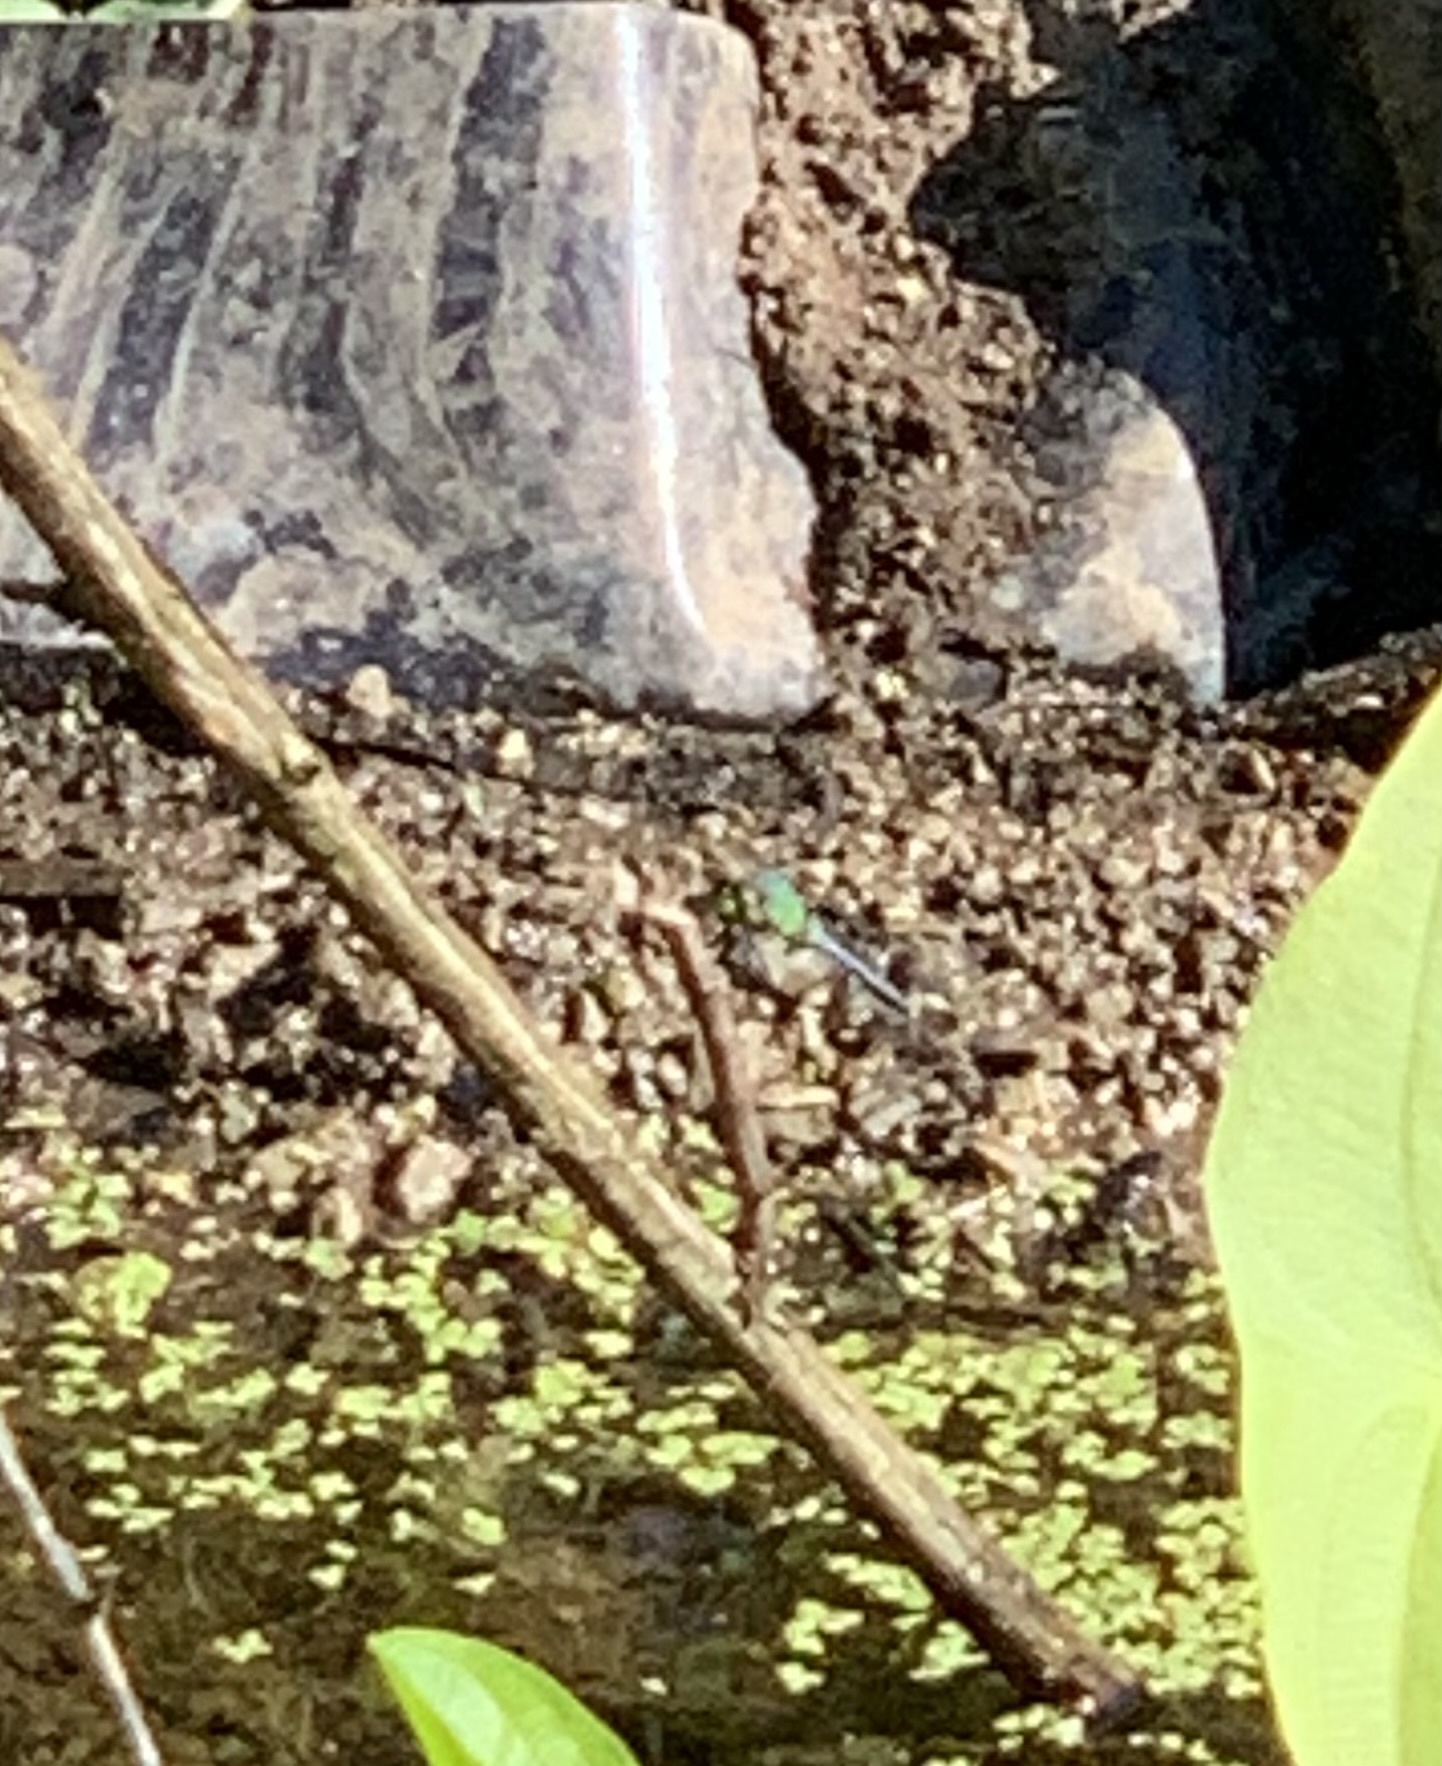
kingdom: Animalia
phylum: Arthropoda
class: Insecta
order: Odonata
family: Libellulidae
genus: Erythemis
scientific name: Erythemis simplicicollis
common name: Eastern pondhawk
